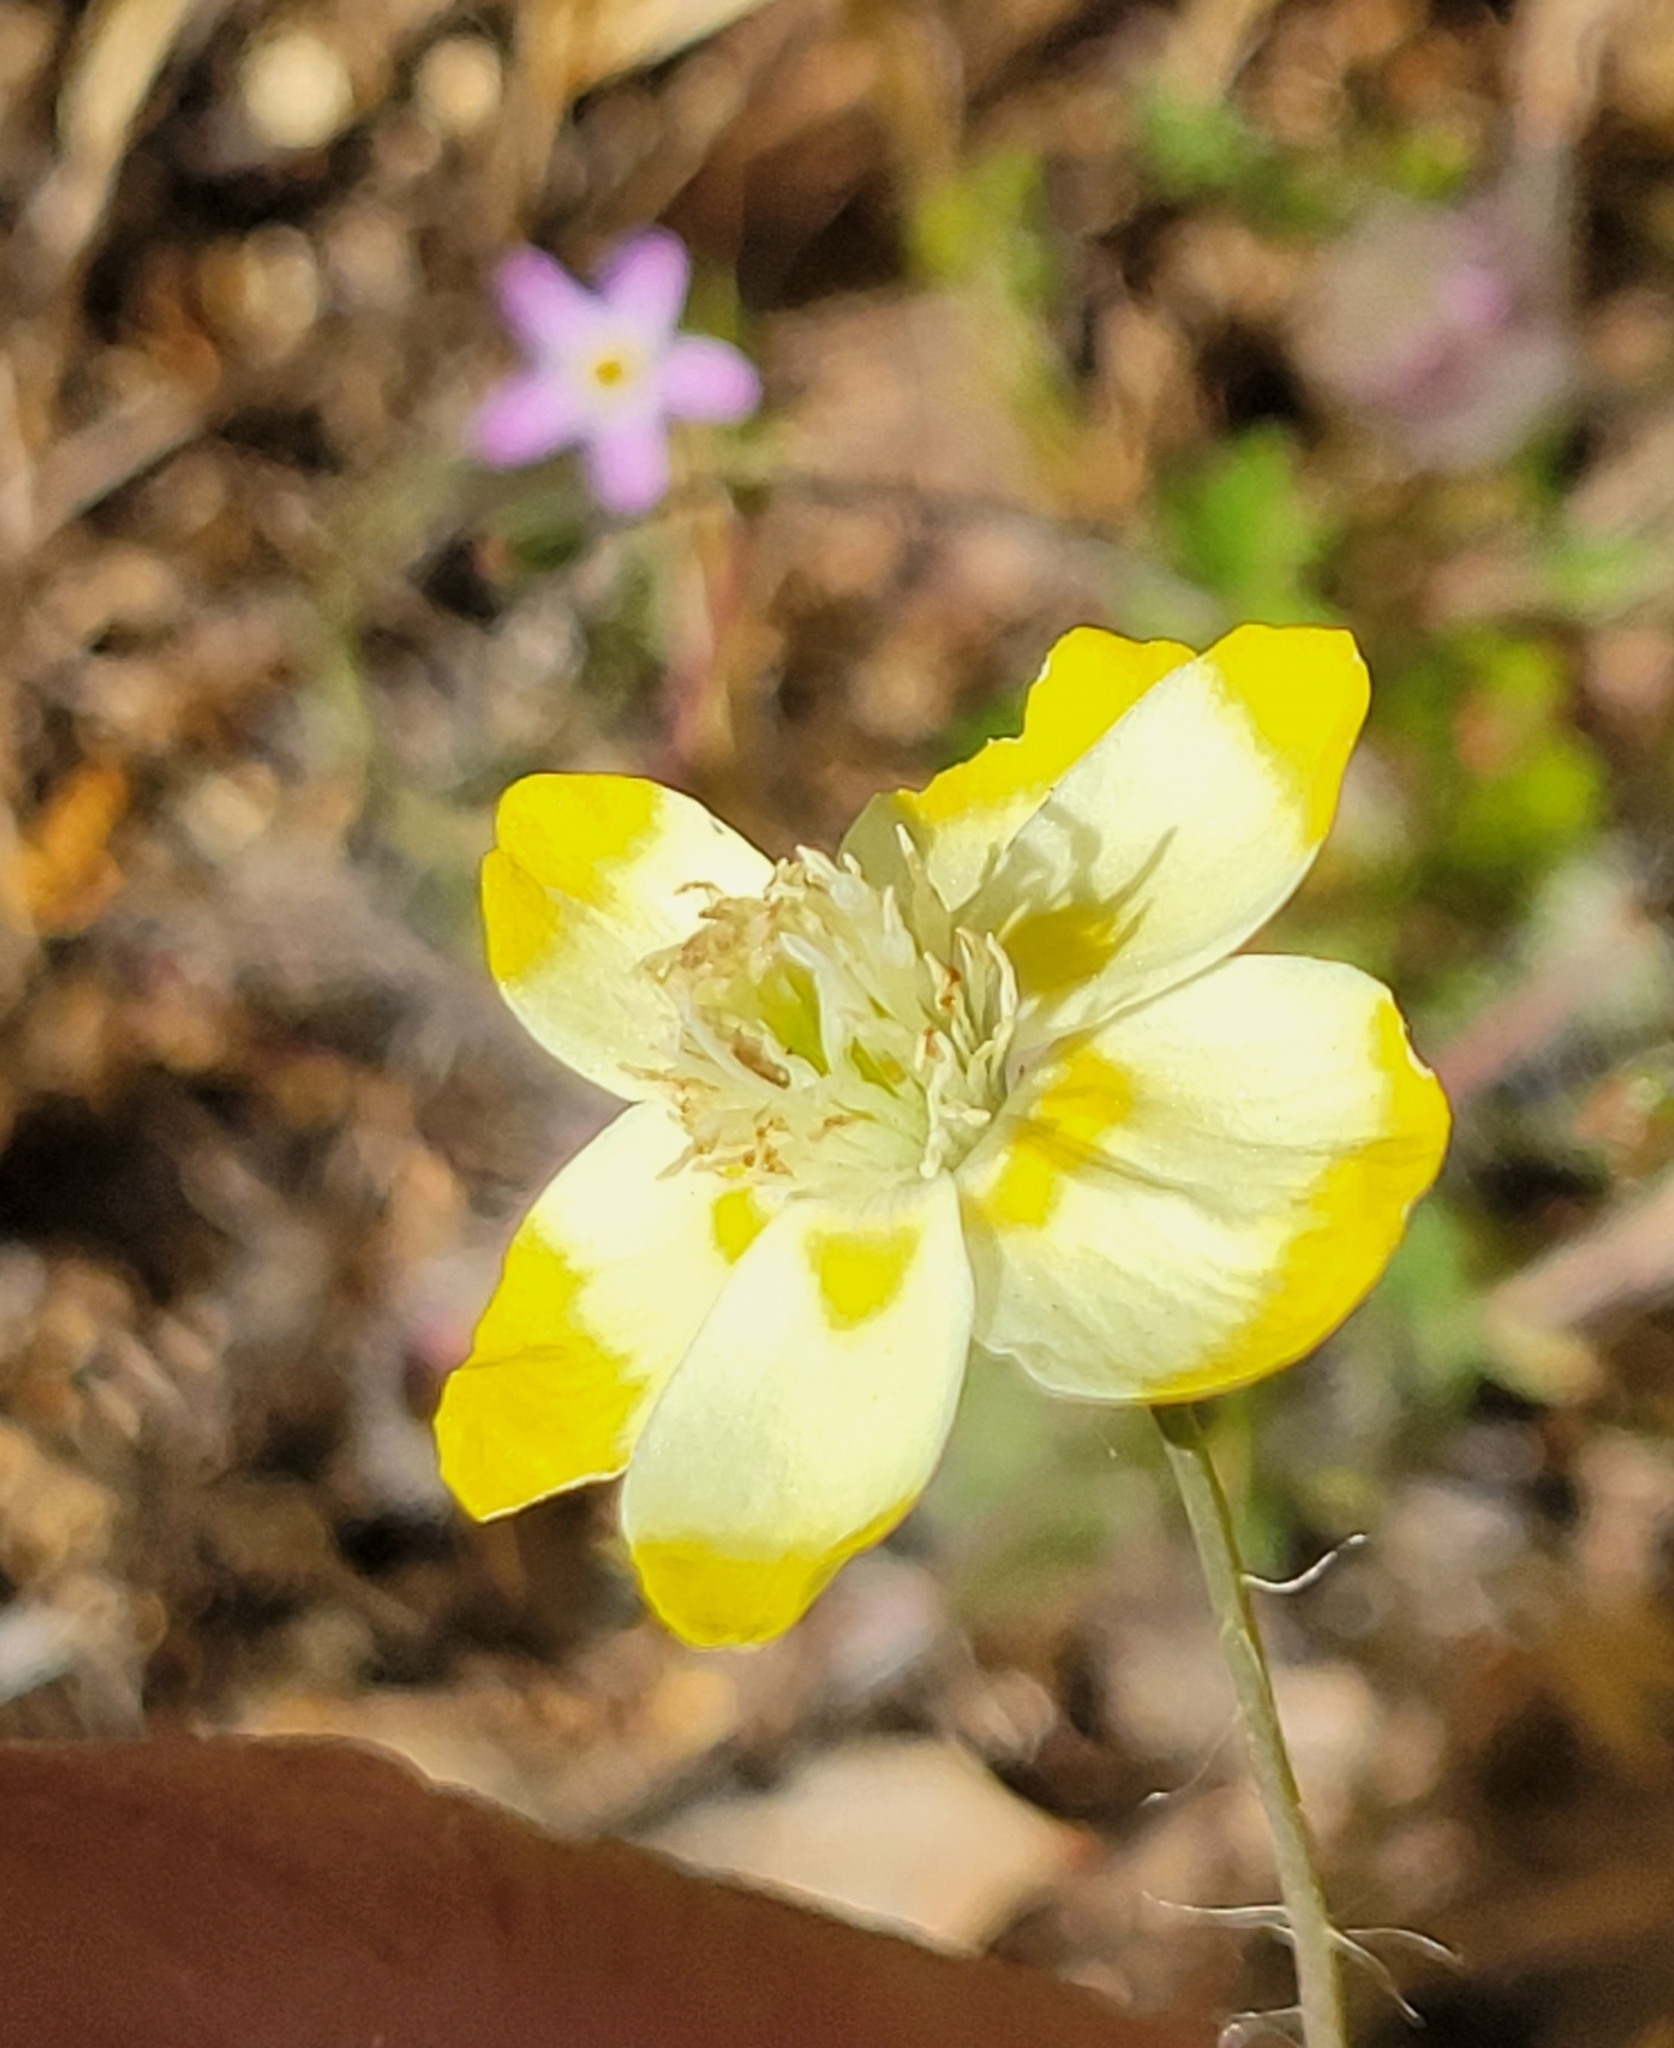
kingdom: Plantae
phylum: Tracheophyta
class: Magnoliopsida
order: Ranunculales
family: Papaveraceae
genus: Platystemon
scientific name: Platystemon californicus
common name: Cream-cups
